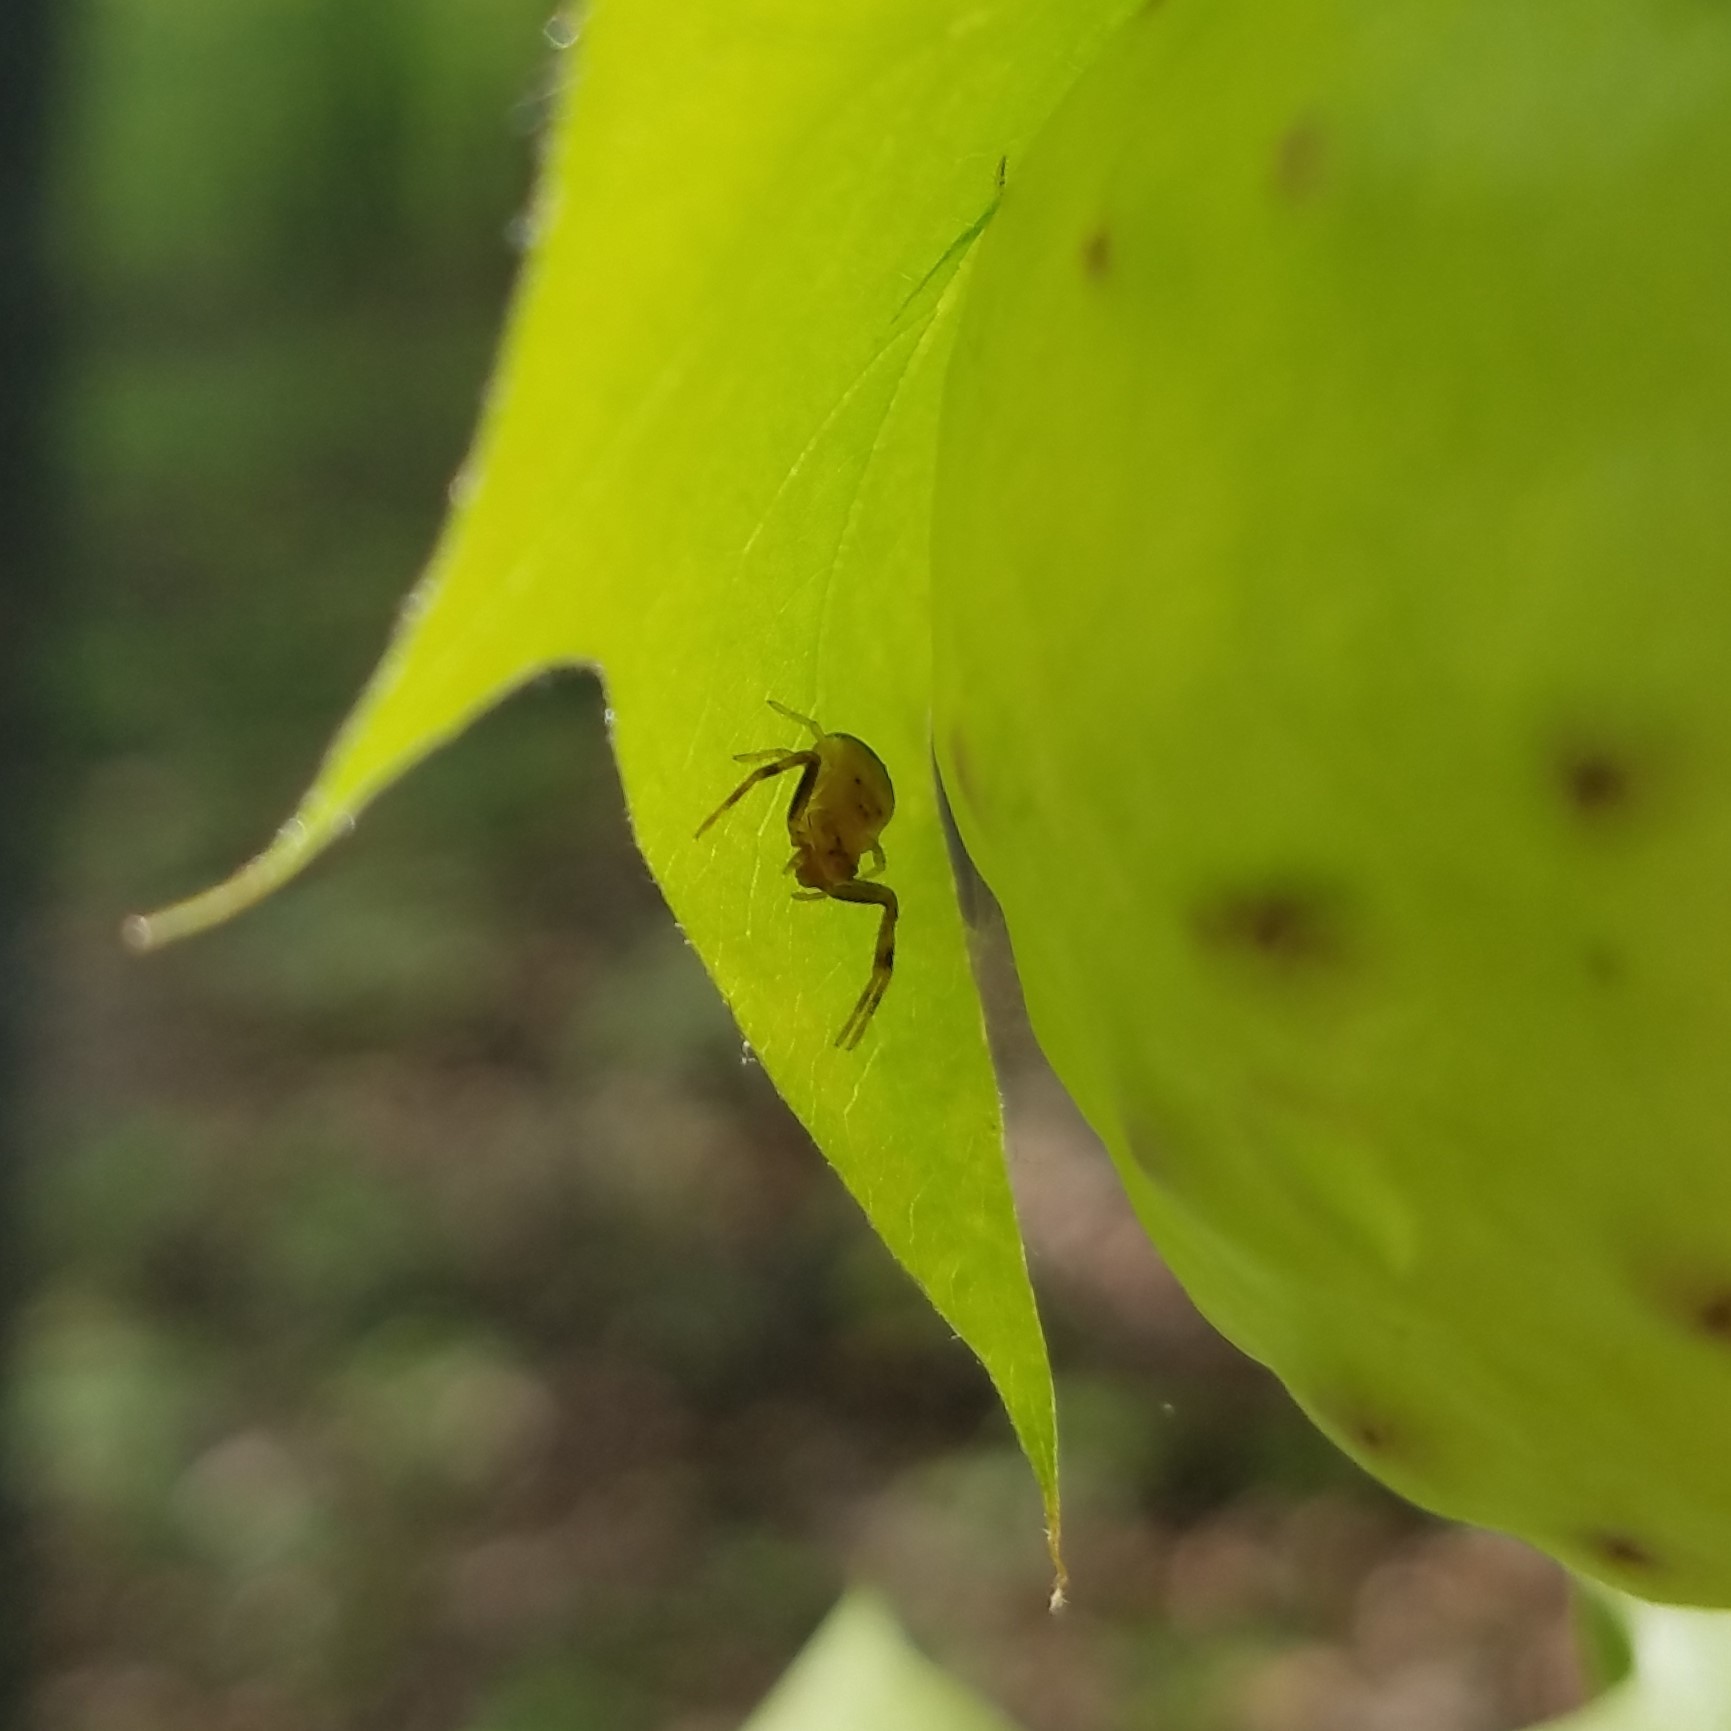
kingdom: Animalia
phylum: Arthropoda
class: Arachnida
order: Araneae
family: Thomisidae
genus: Synema
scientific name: Synema parvulum
